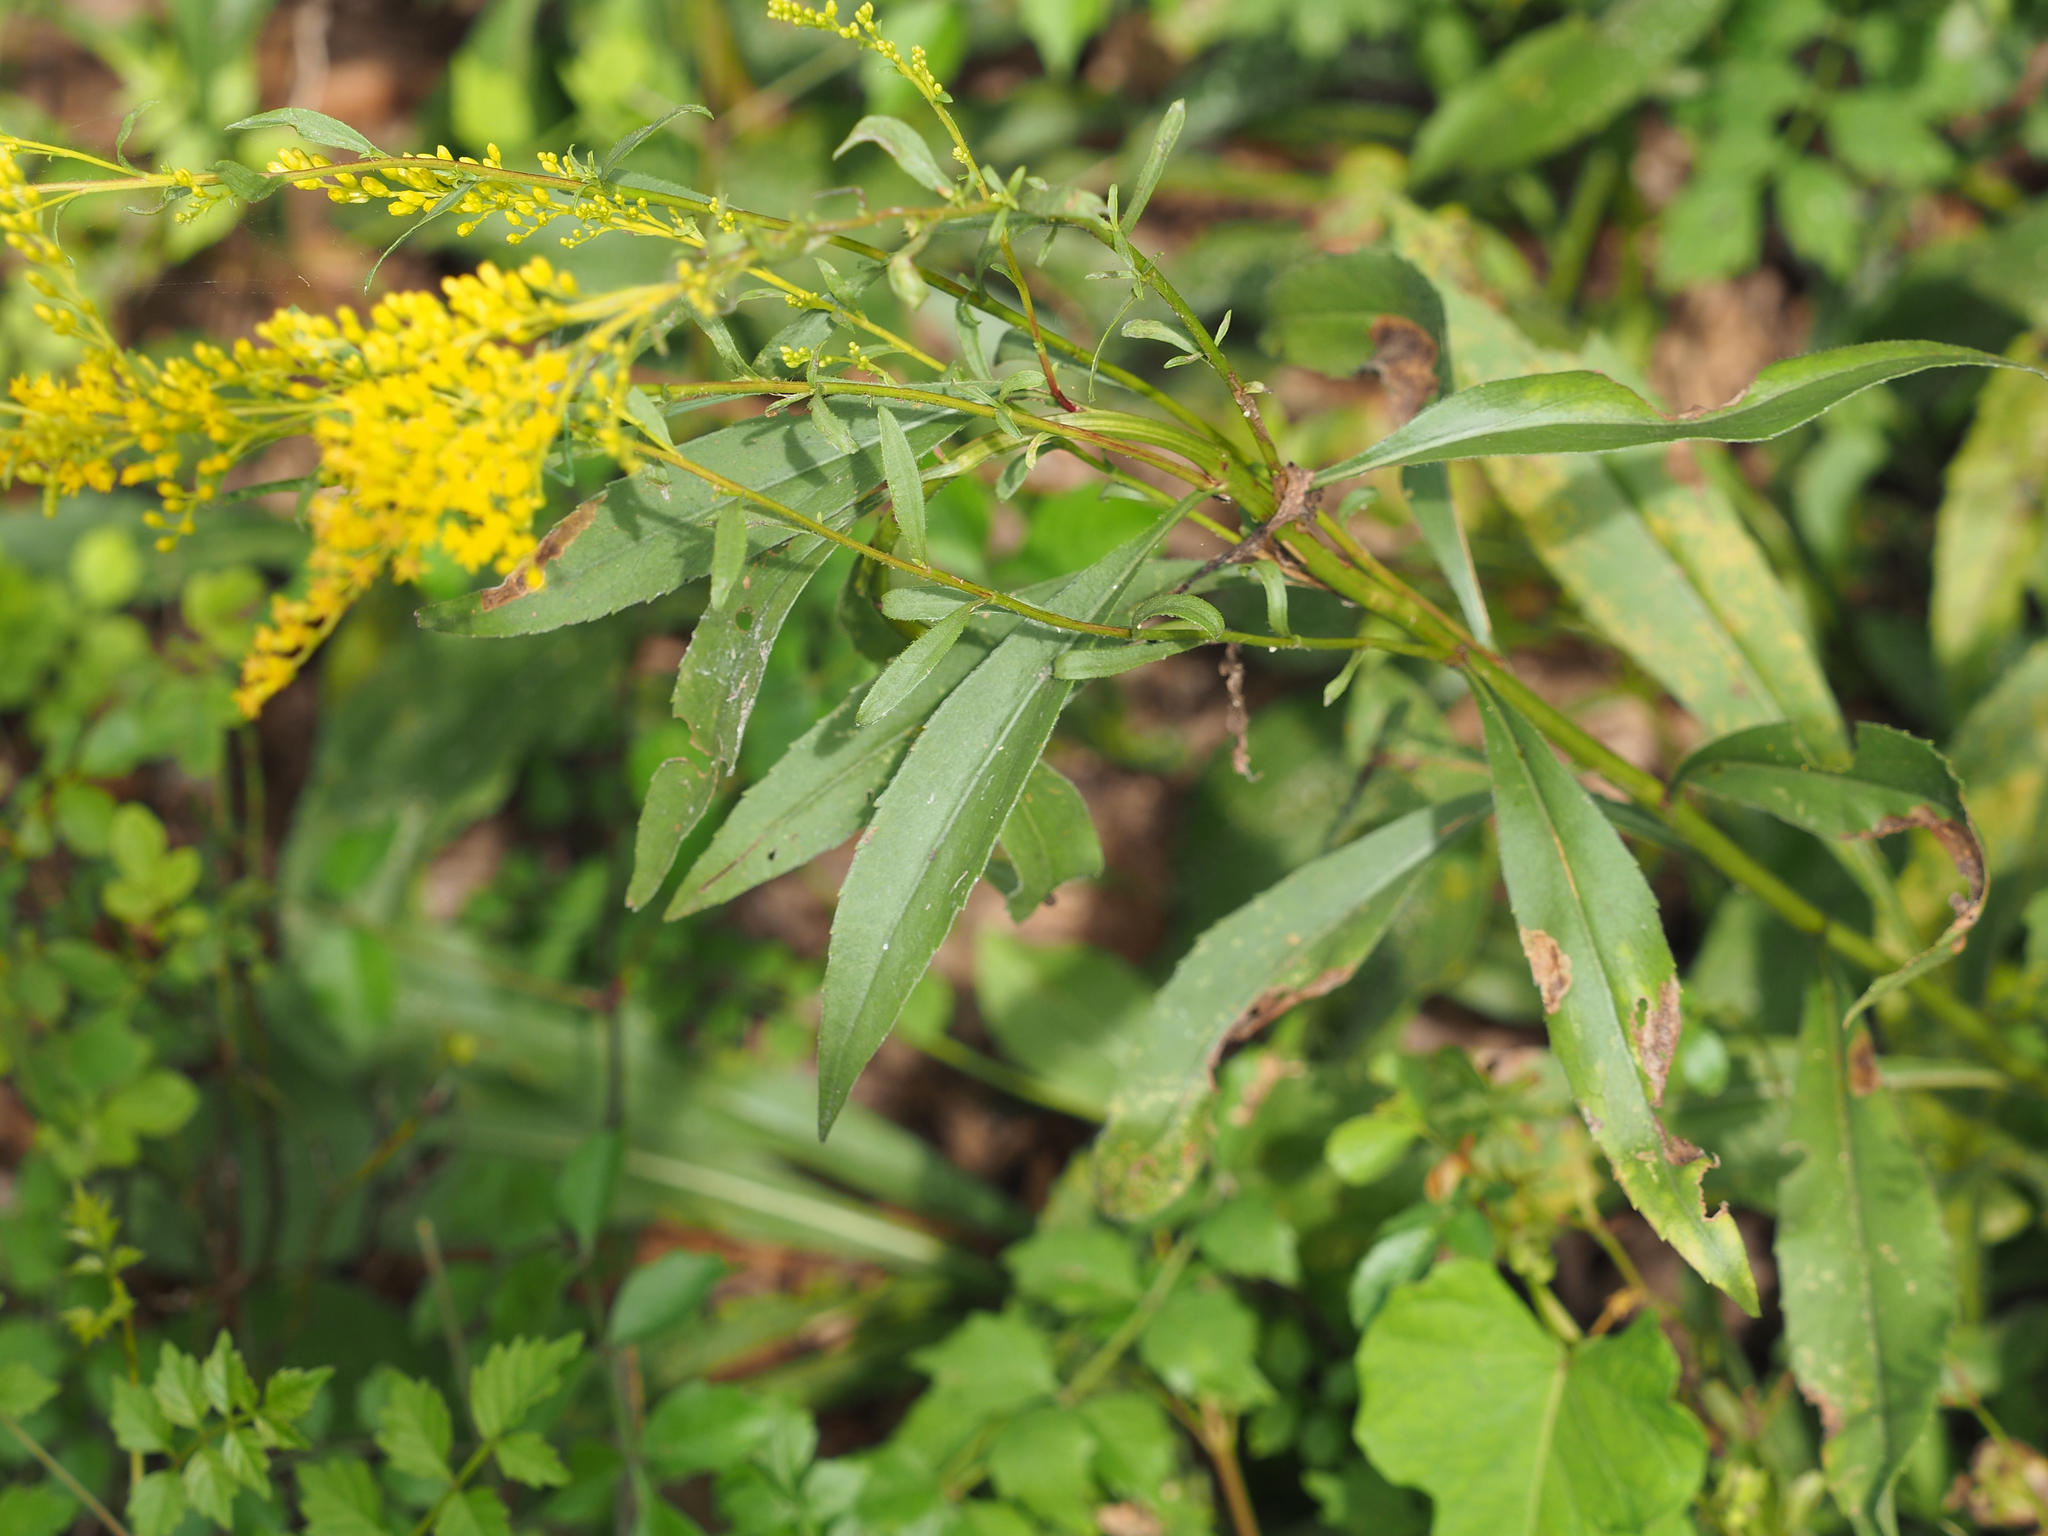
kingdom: Plantae
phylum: Tracheophyta
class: Magnoliopsida
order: Asterales
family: Asteraceae
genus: Solidago
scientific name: Solidago juncea
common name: Early goldenrod
